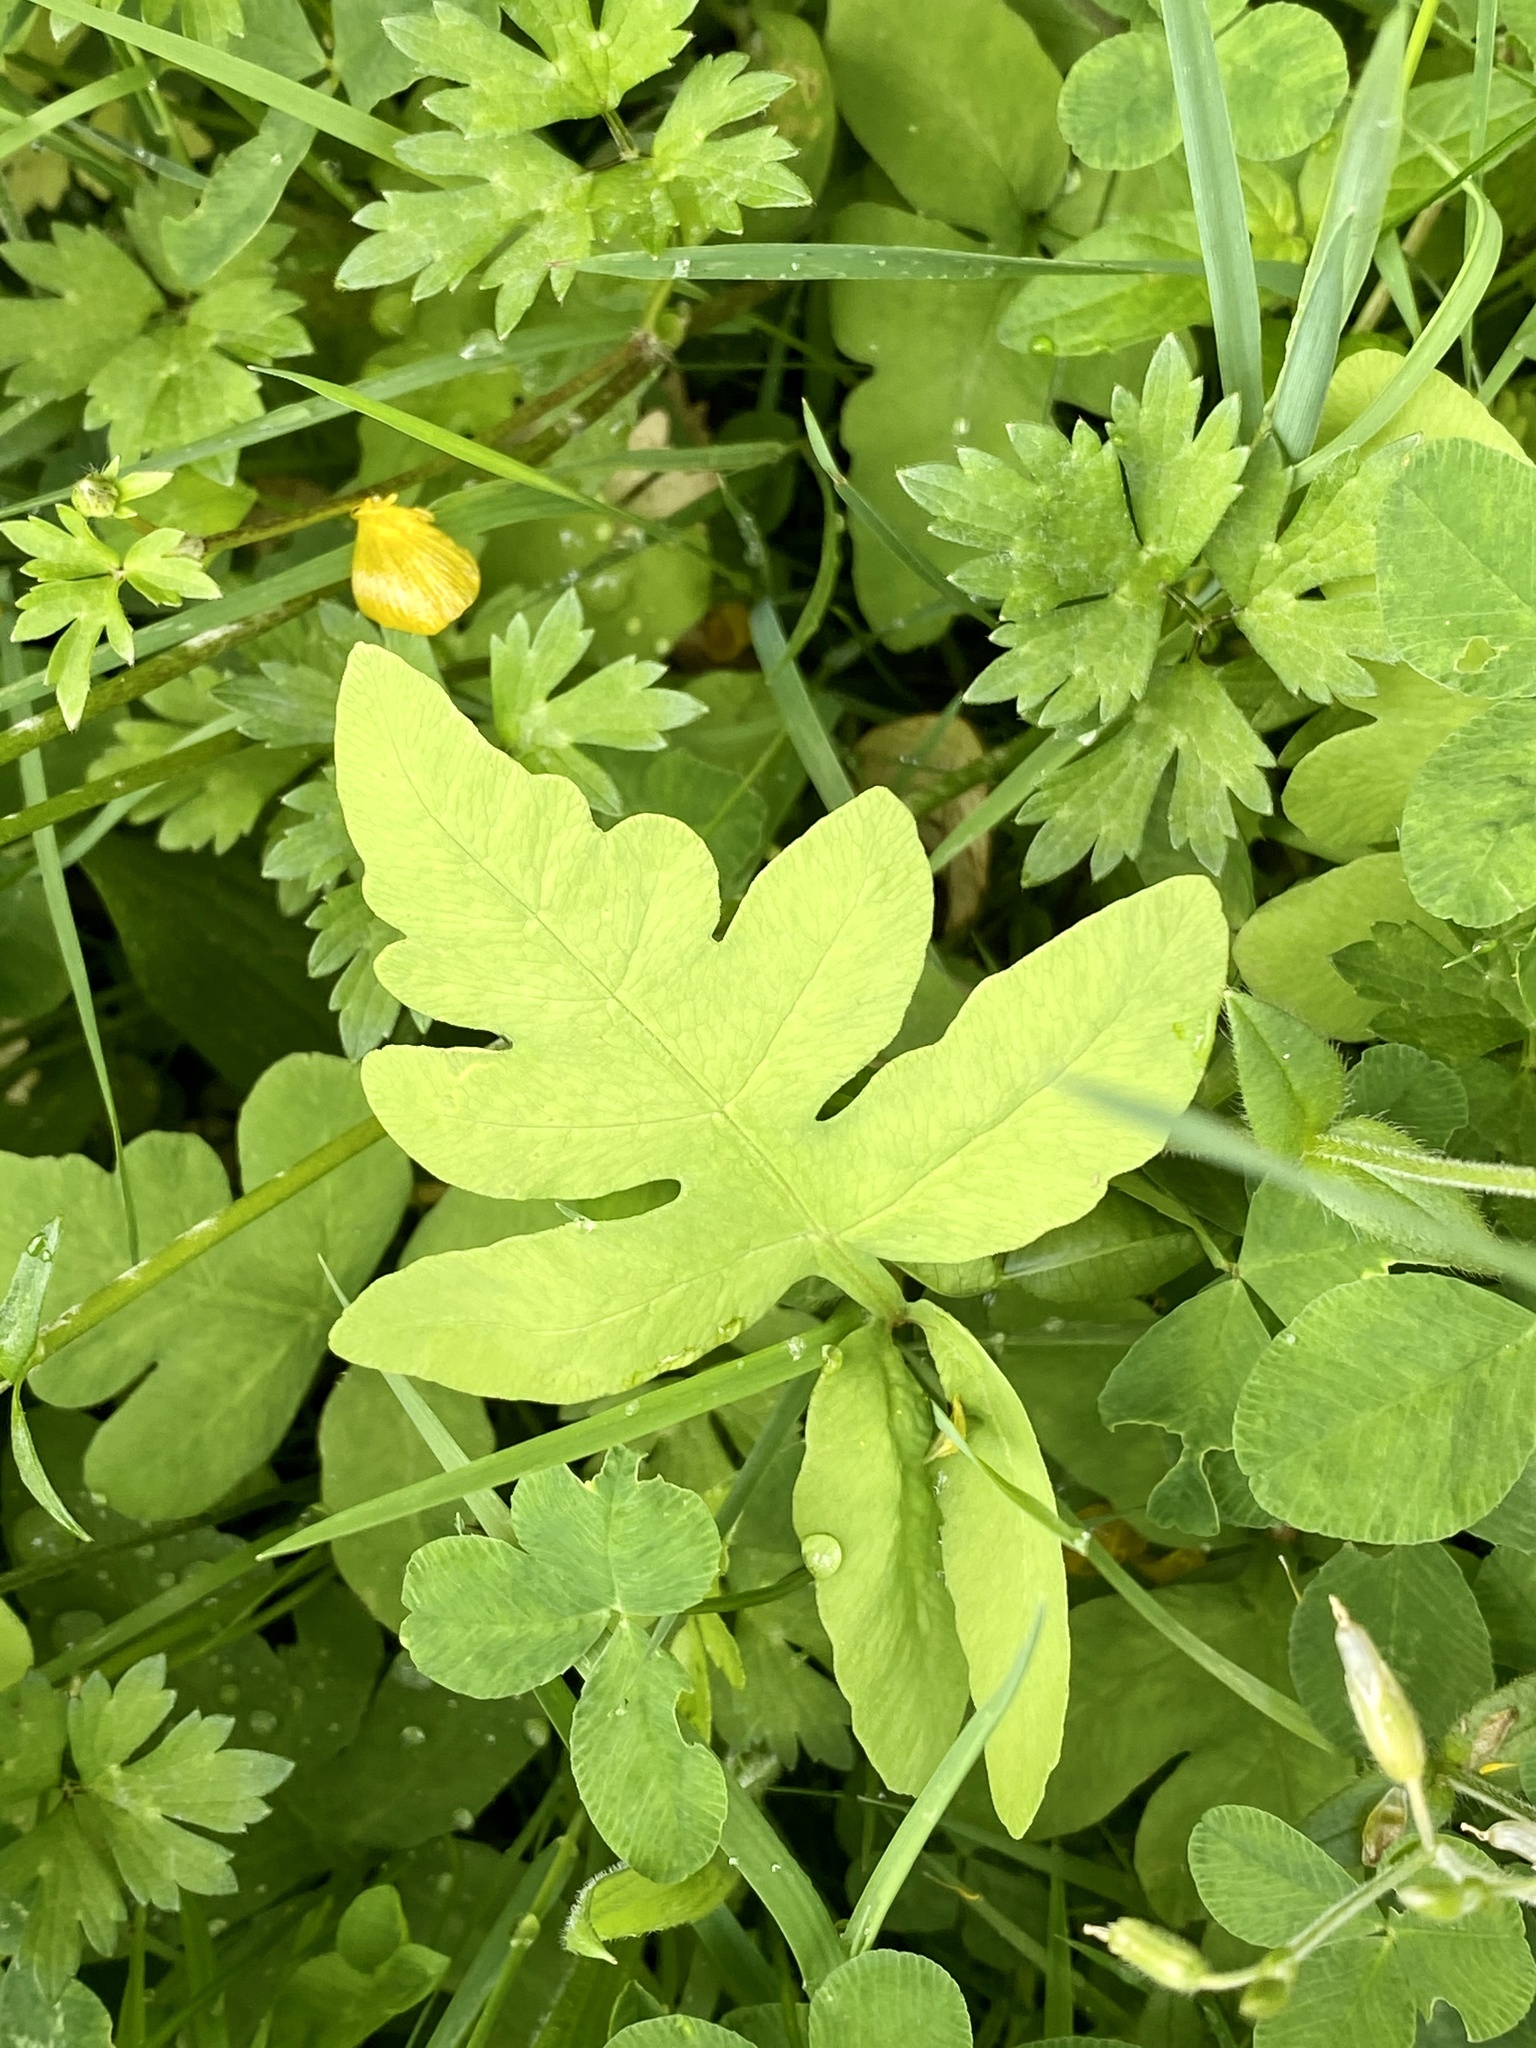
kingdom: Plantae
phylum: Tracheophyta
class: Polypodiopsida
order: Polypodiales
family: Onocleaceae
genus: Onoclea
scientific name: Onoclea sensibilis
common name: Sensitive fern
